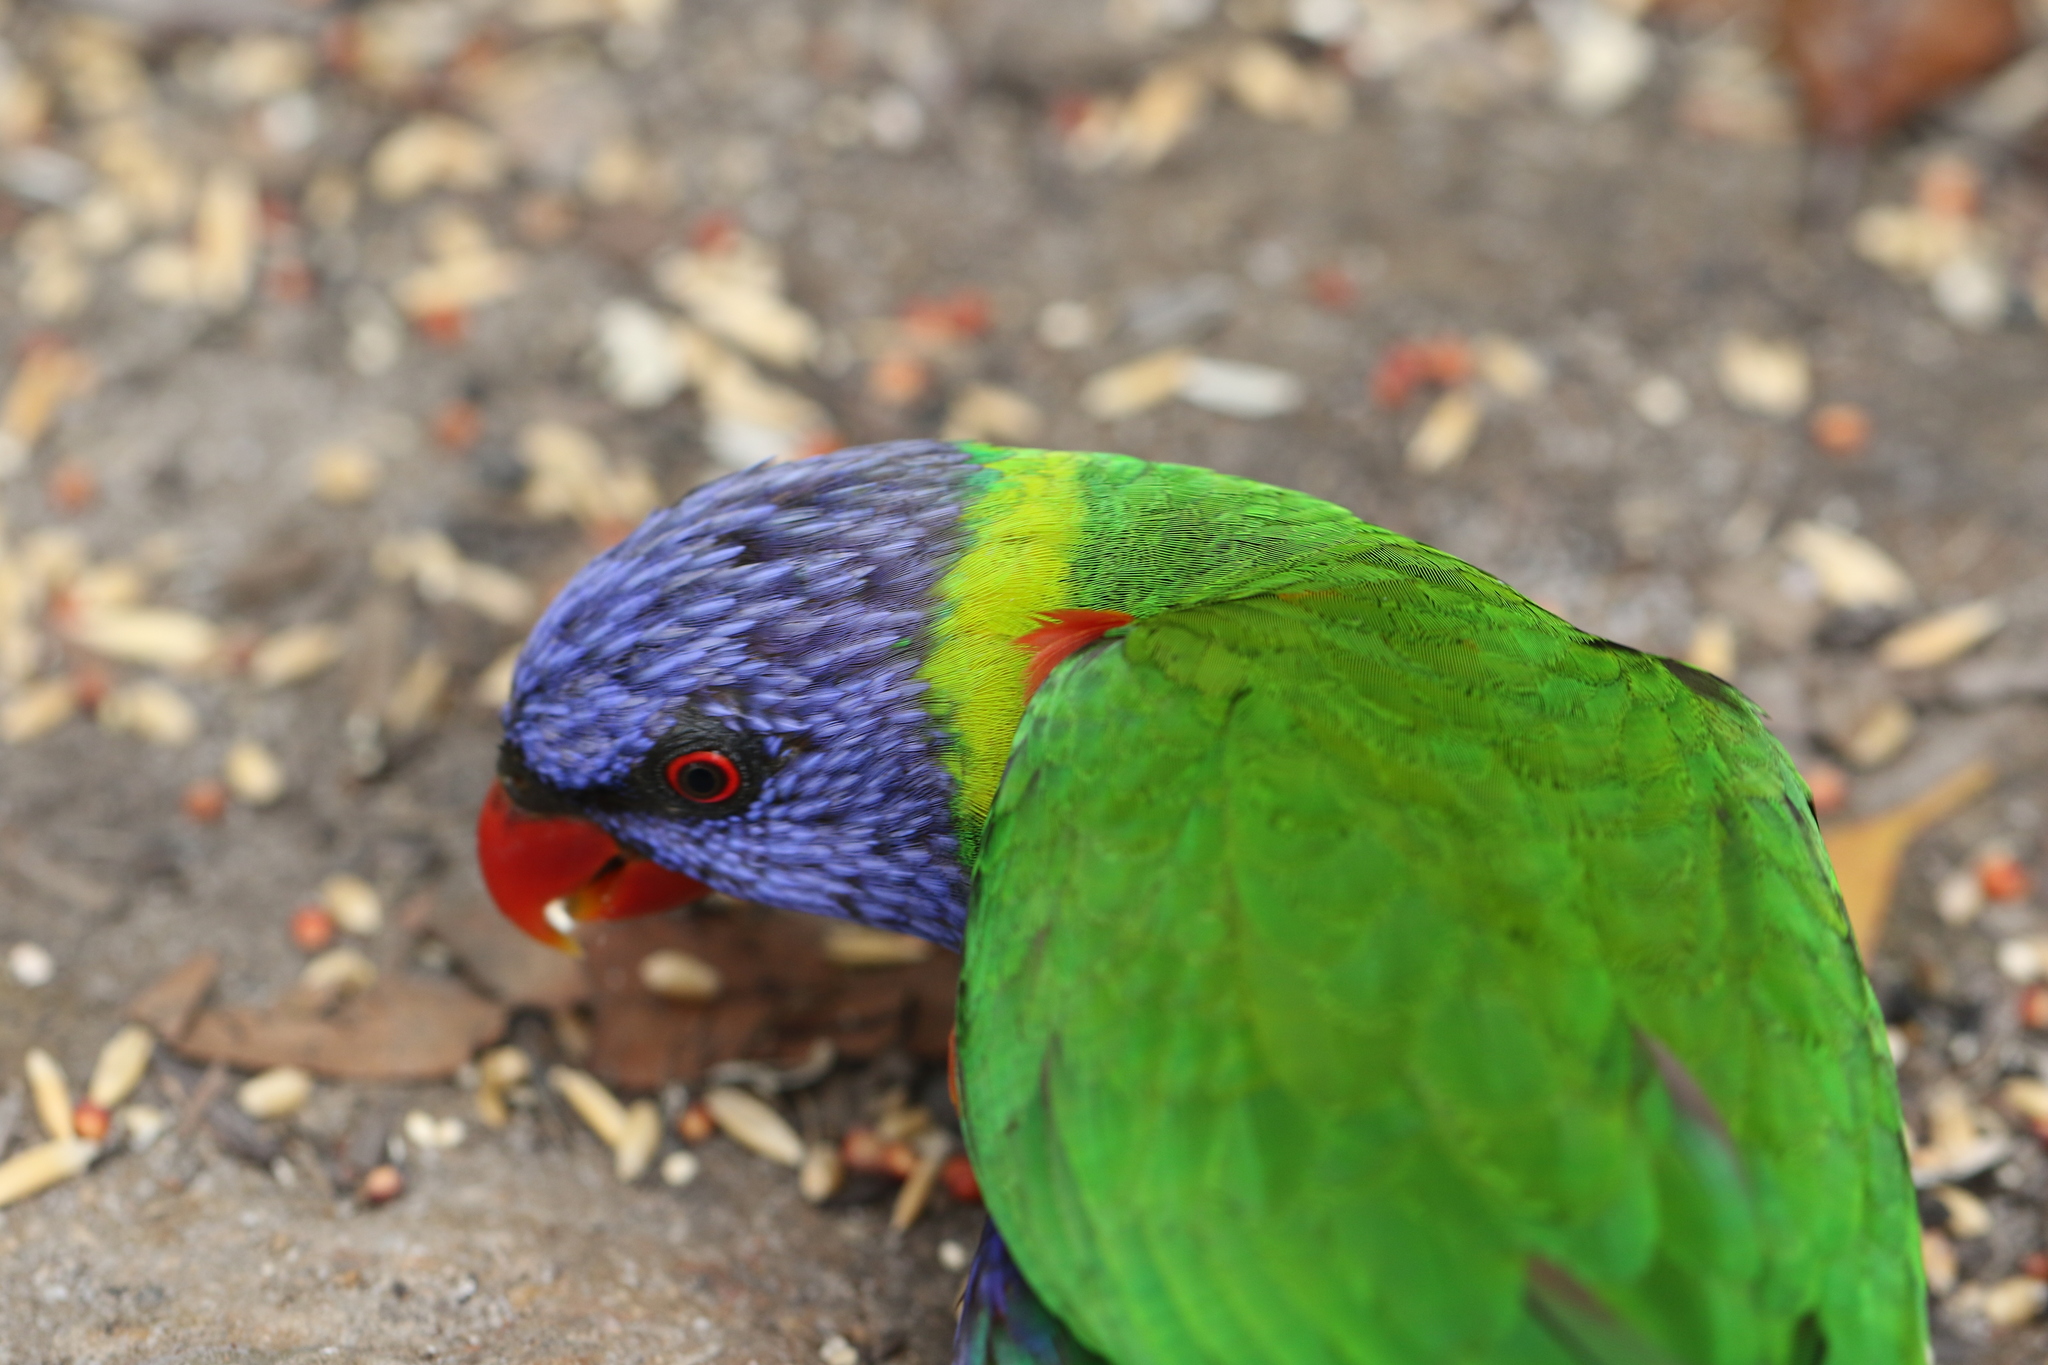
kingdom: Animalia
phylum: Chordata
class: Aves
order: Psittaciformes
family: Psittacidae
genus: Trichoglossus
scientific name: Trichoglossus haematodus
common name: Coconut lorikeet
